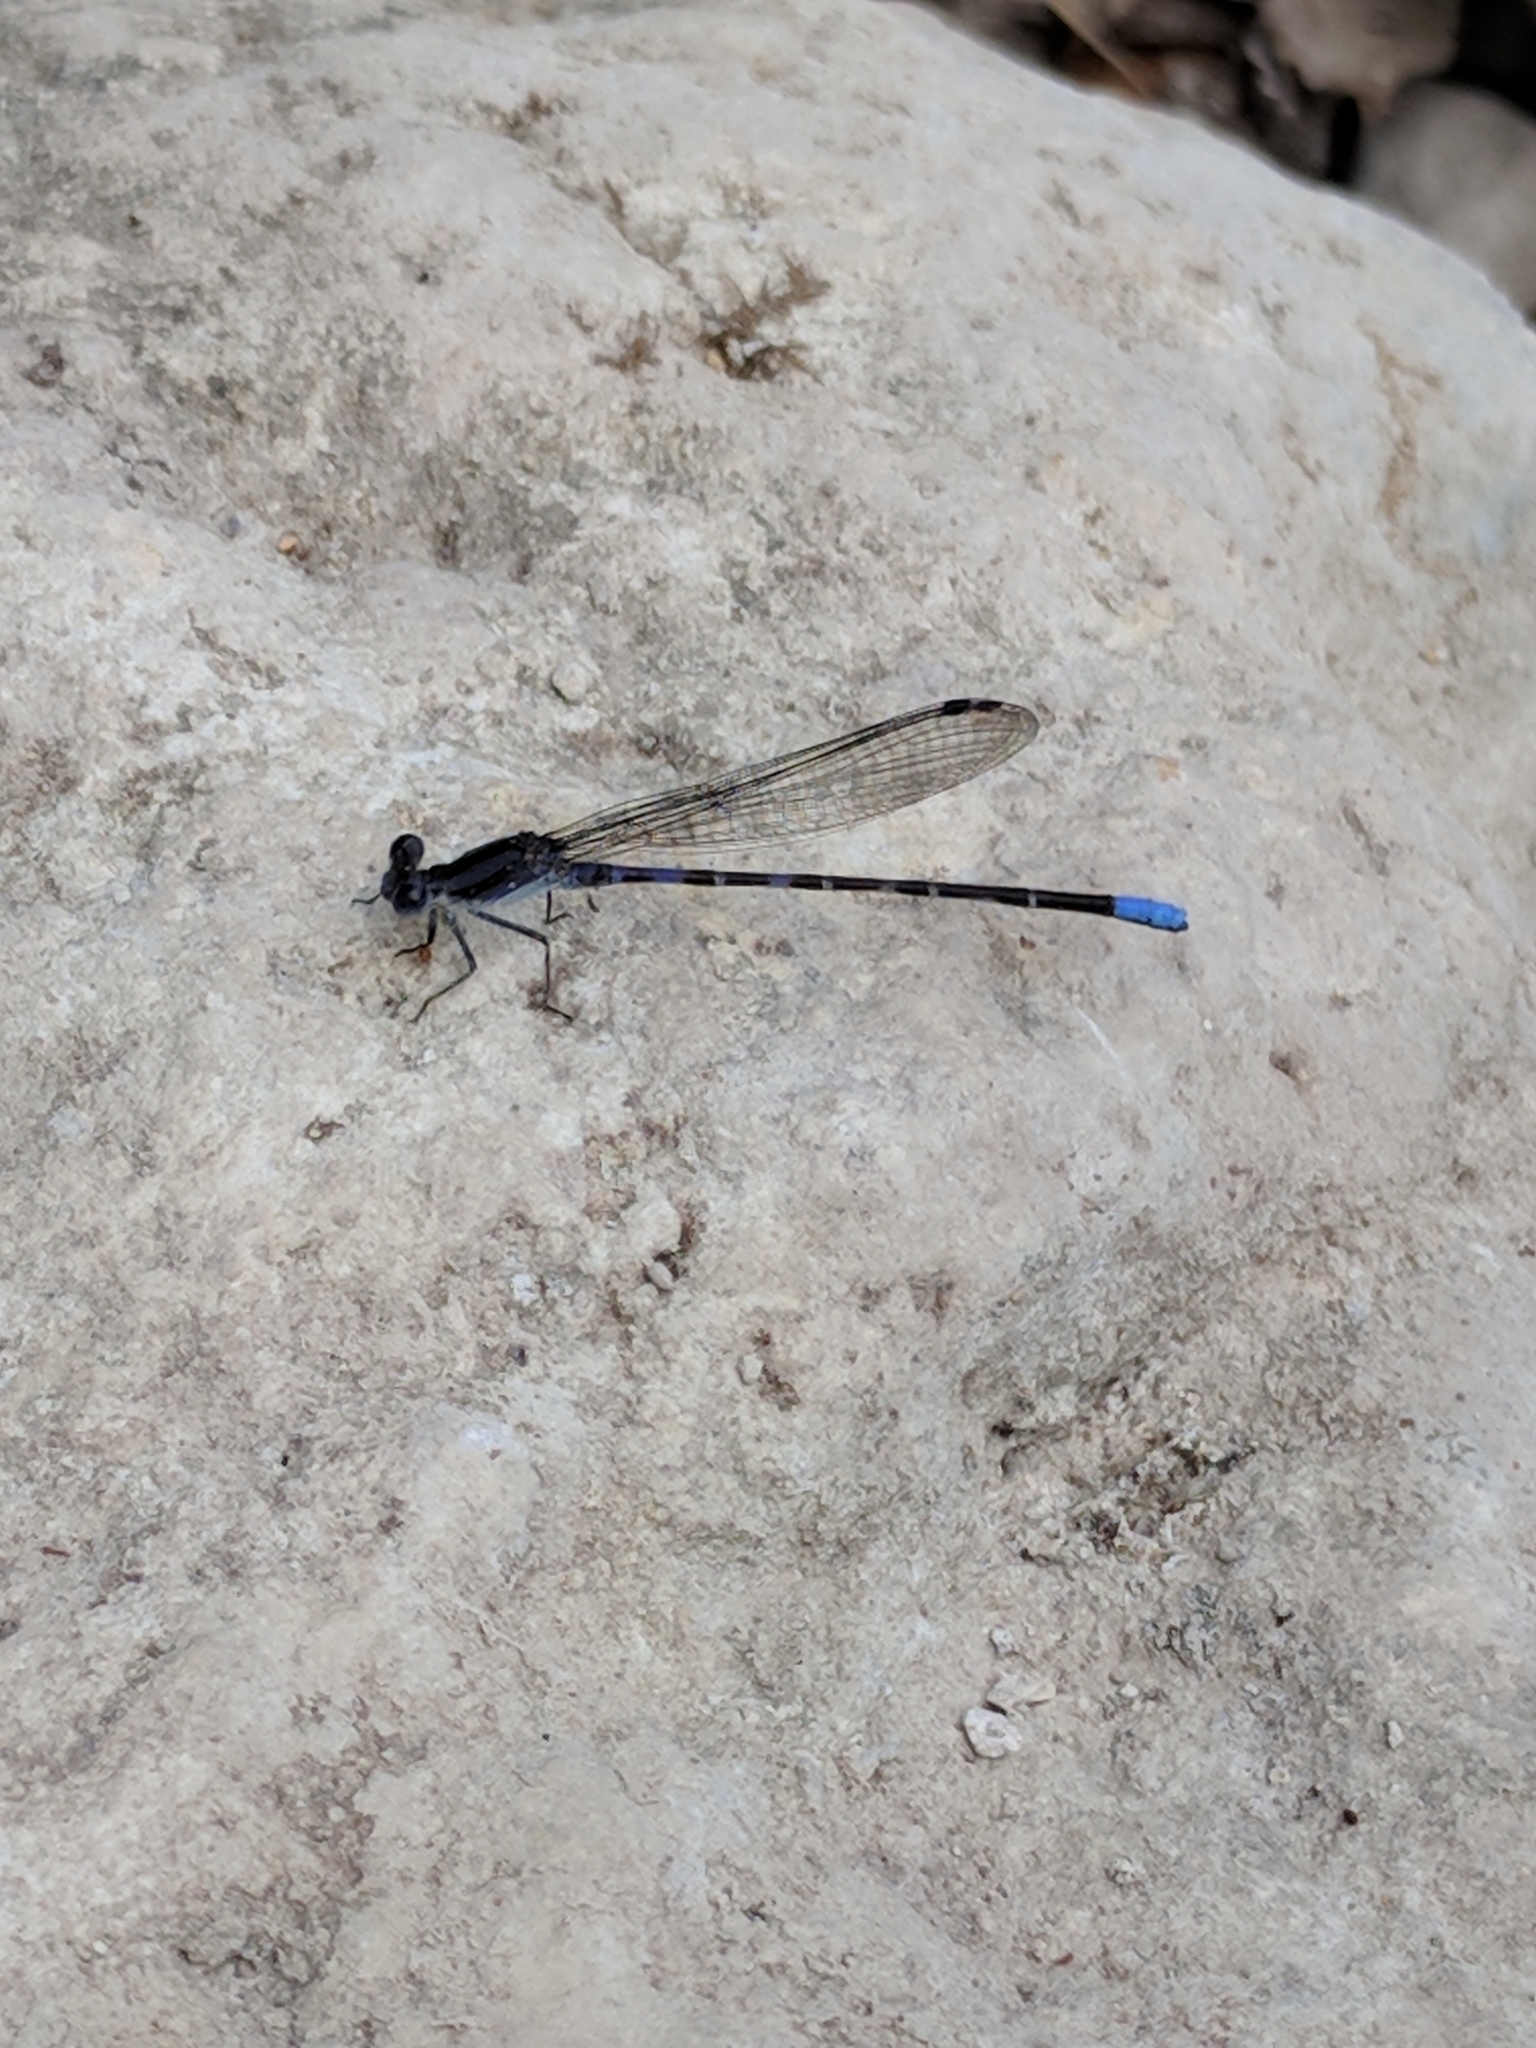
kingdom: Animalia
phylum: Arthropoda
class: Insecta
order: Odonata
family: Coenagrionidae
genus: Argia
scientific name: Argia immunda
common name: Kiowa dancer
